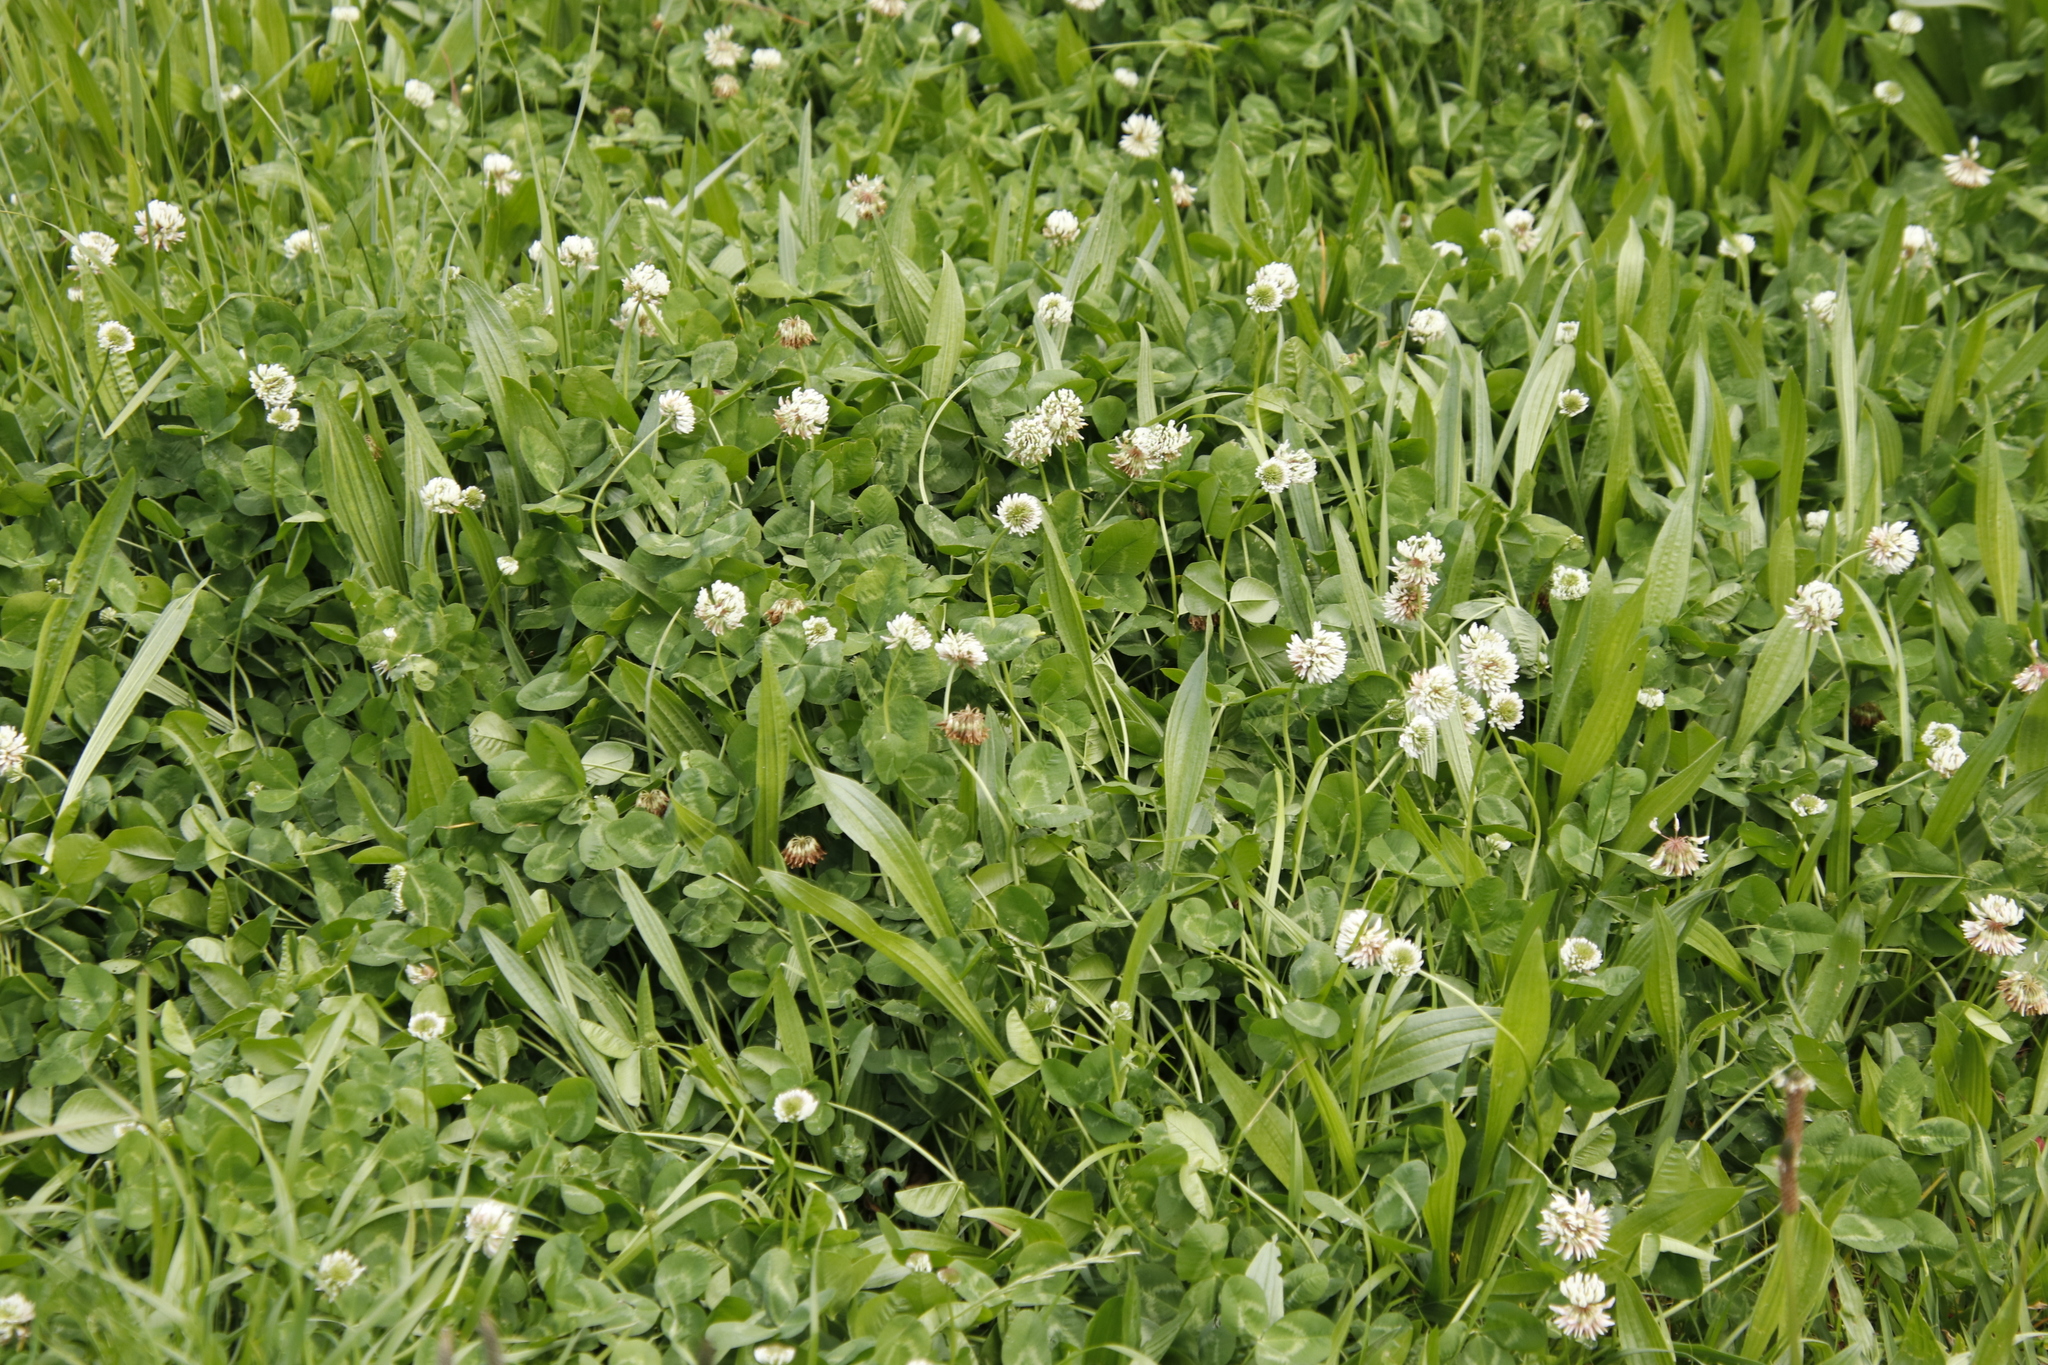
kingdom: Plantae
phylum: Tracheophyta
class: Magnoliopsida
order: Fabales
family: Fabaceae
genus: Trifolium
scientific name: Trifolium repens
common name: White clover
